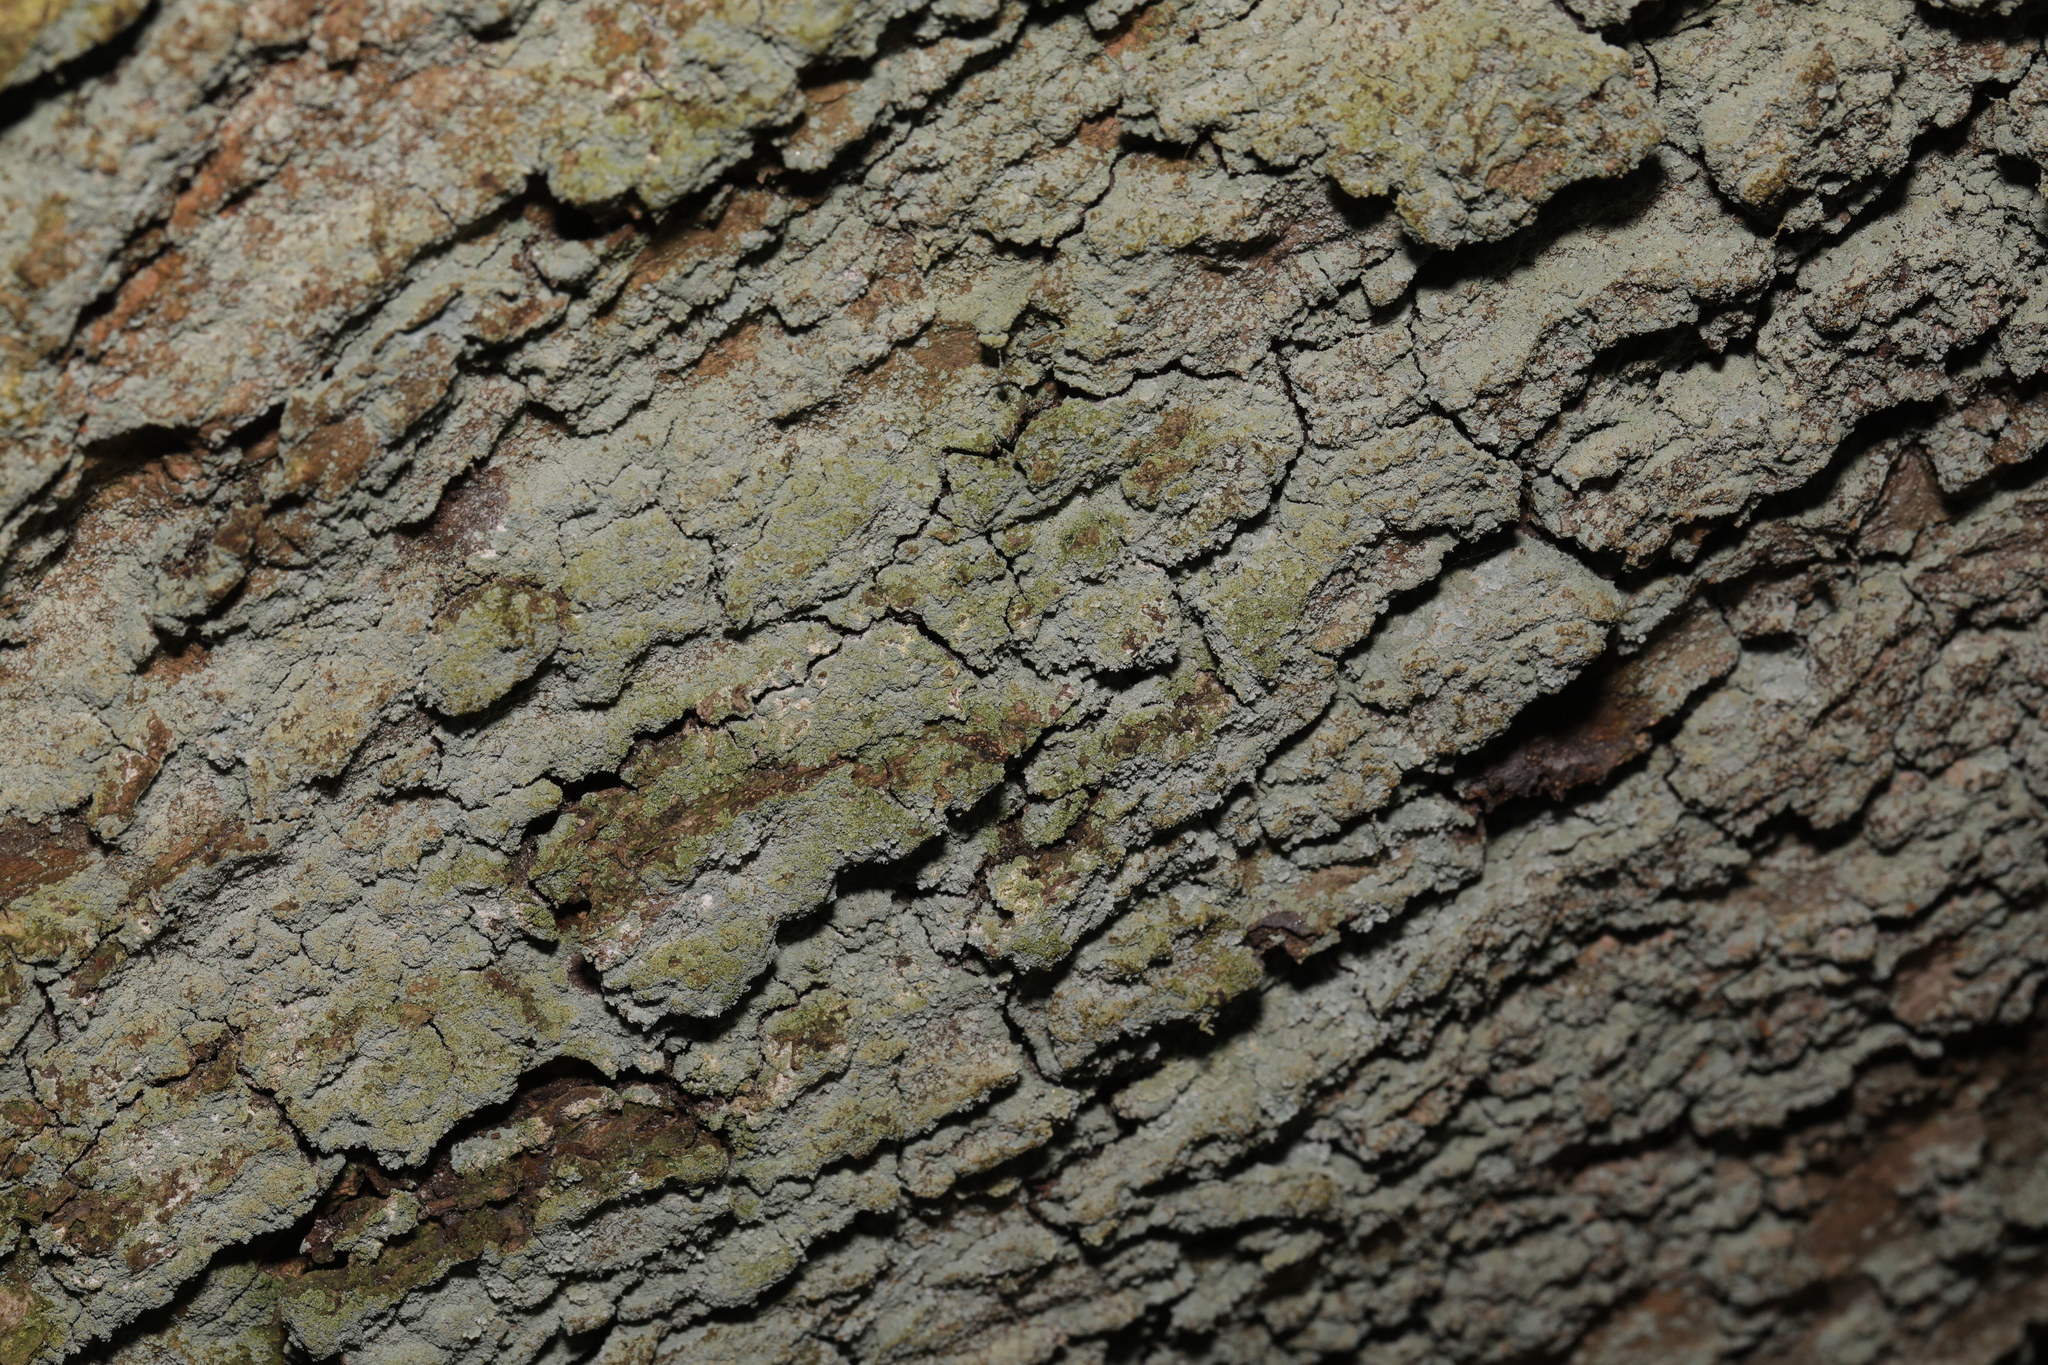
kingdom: Fungi
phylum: Ascomycota
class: Lecanoromycetes
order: Lecanorales
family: Stereocaulaceae
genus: Lepraria
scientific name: Lepraria
